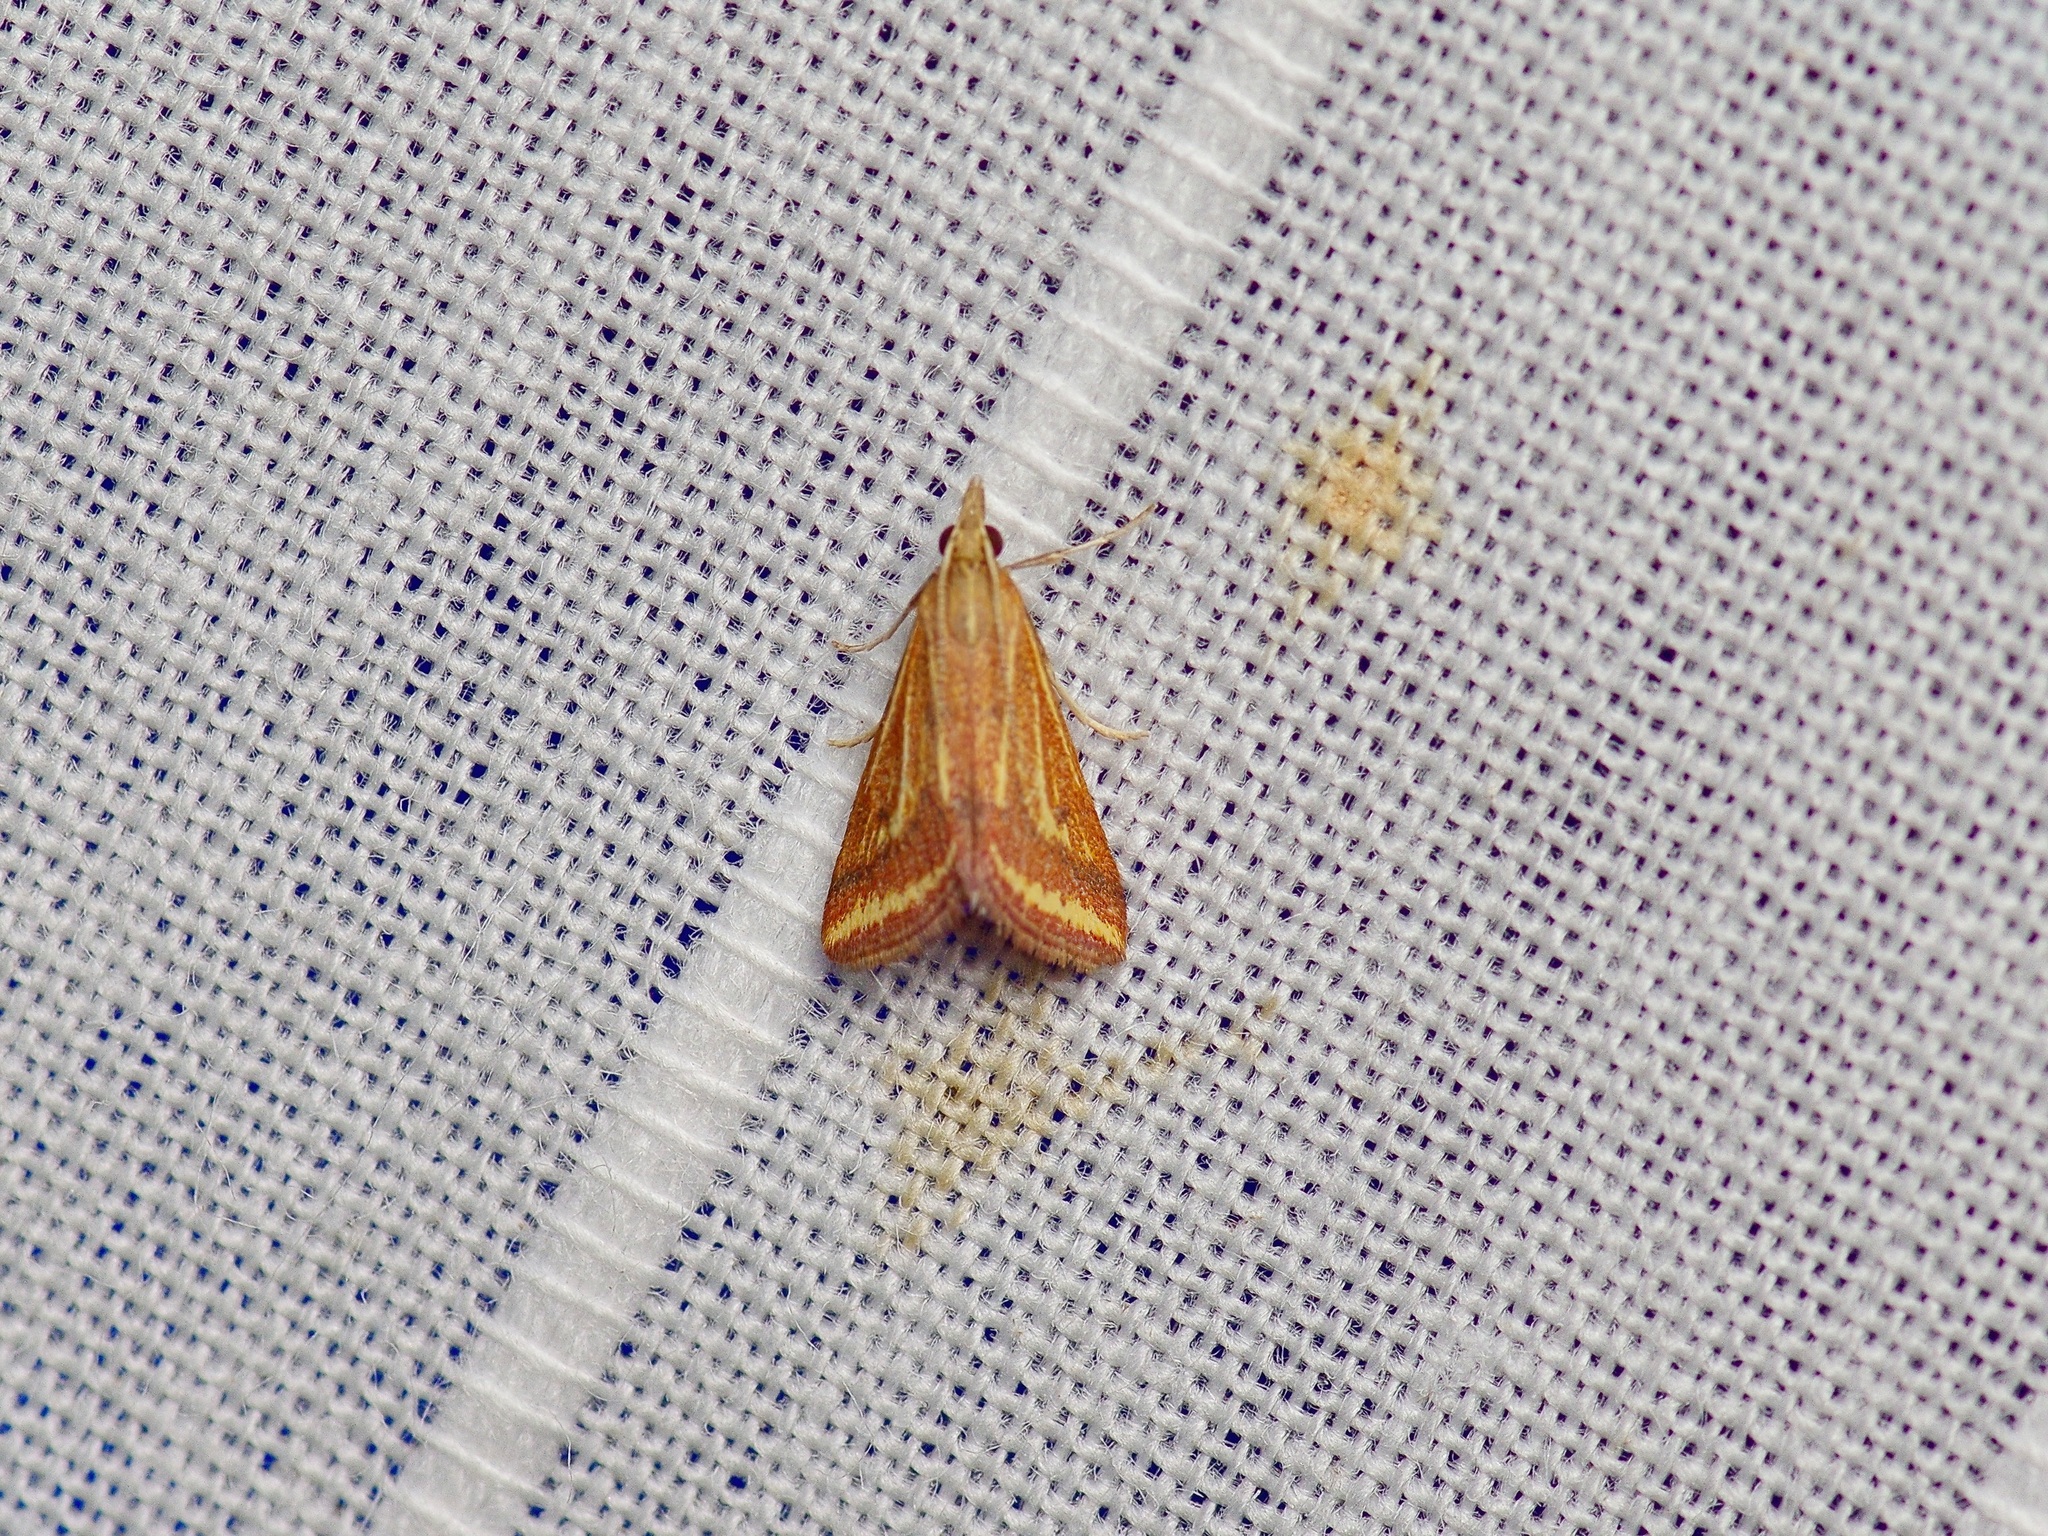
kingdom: Animalia
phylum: Arthropoda
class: Insecta
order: Lepidoptera
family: Crambidae
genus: Microtheoris
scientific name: Microtheoris ophionalis
